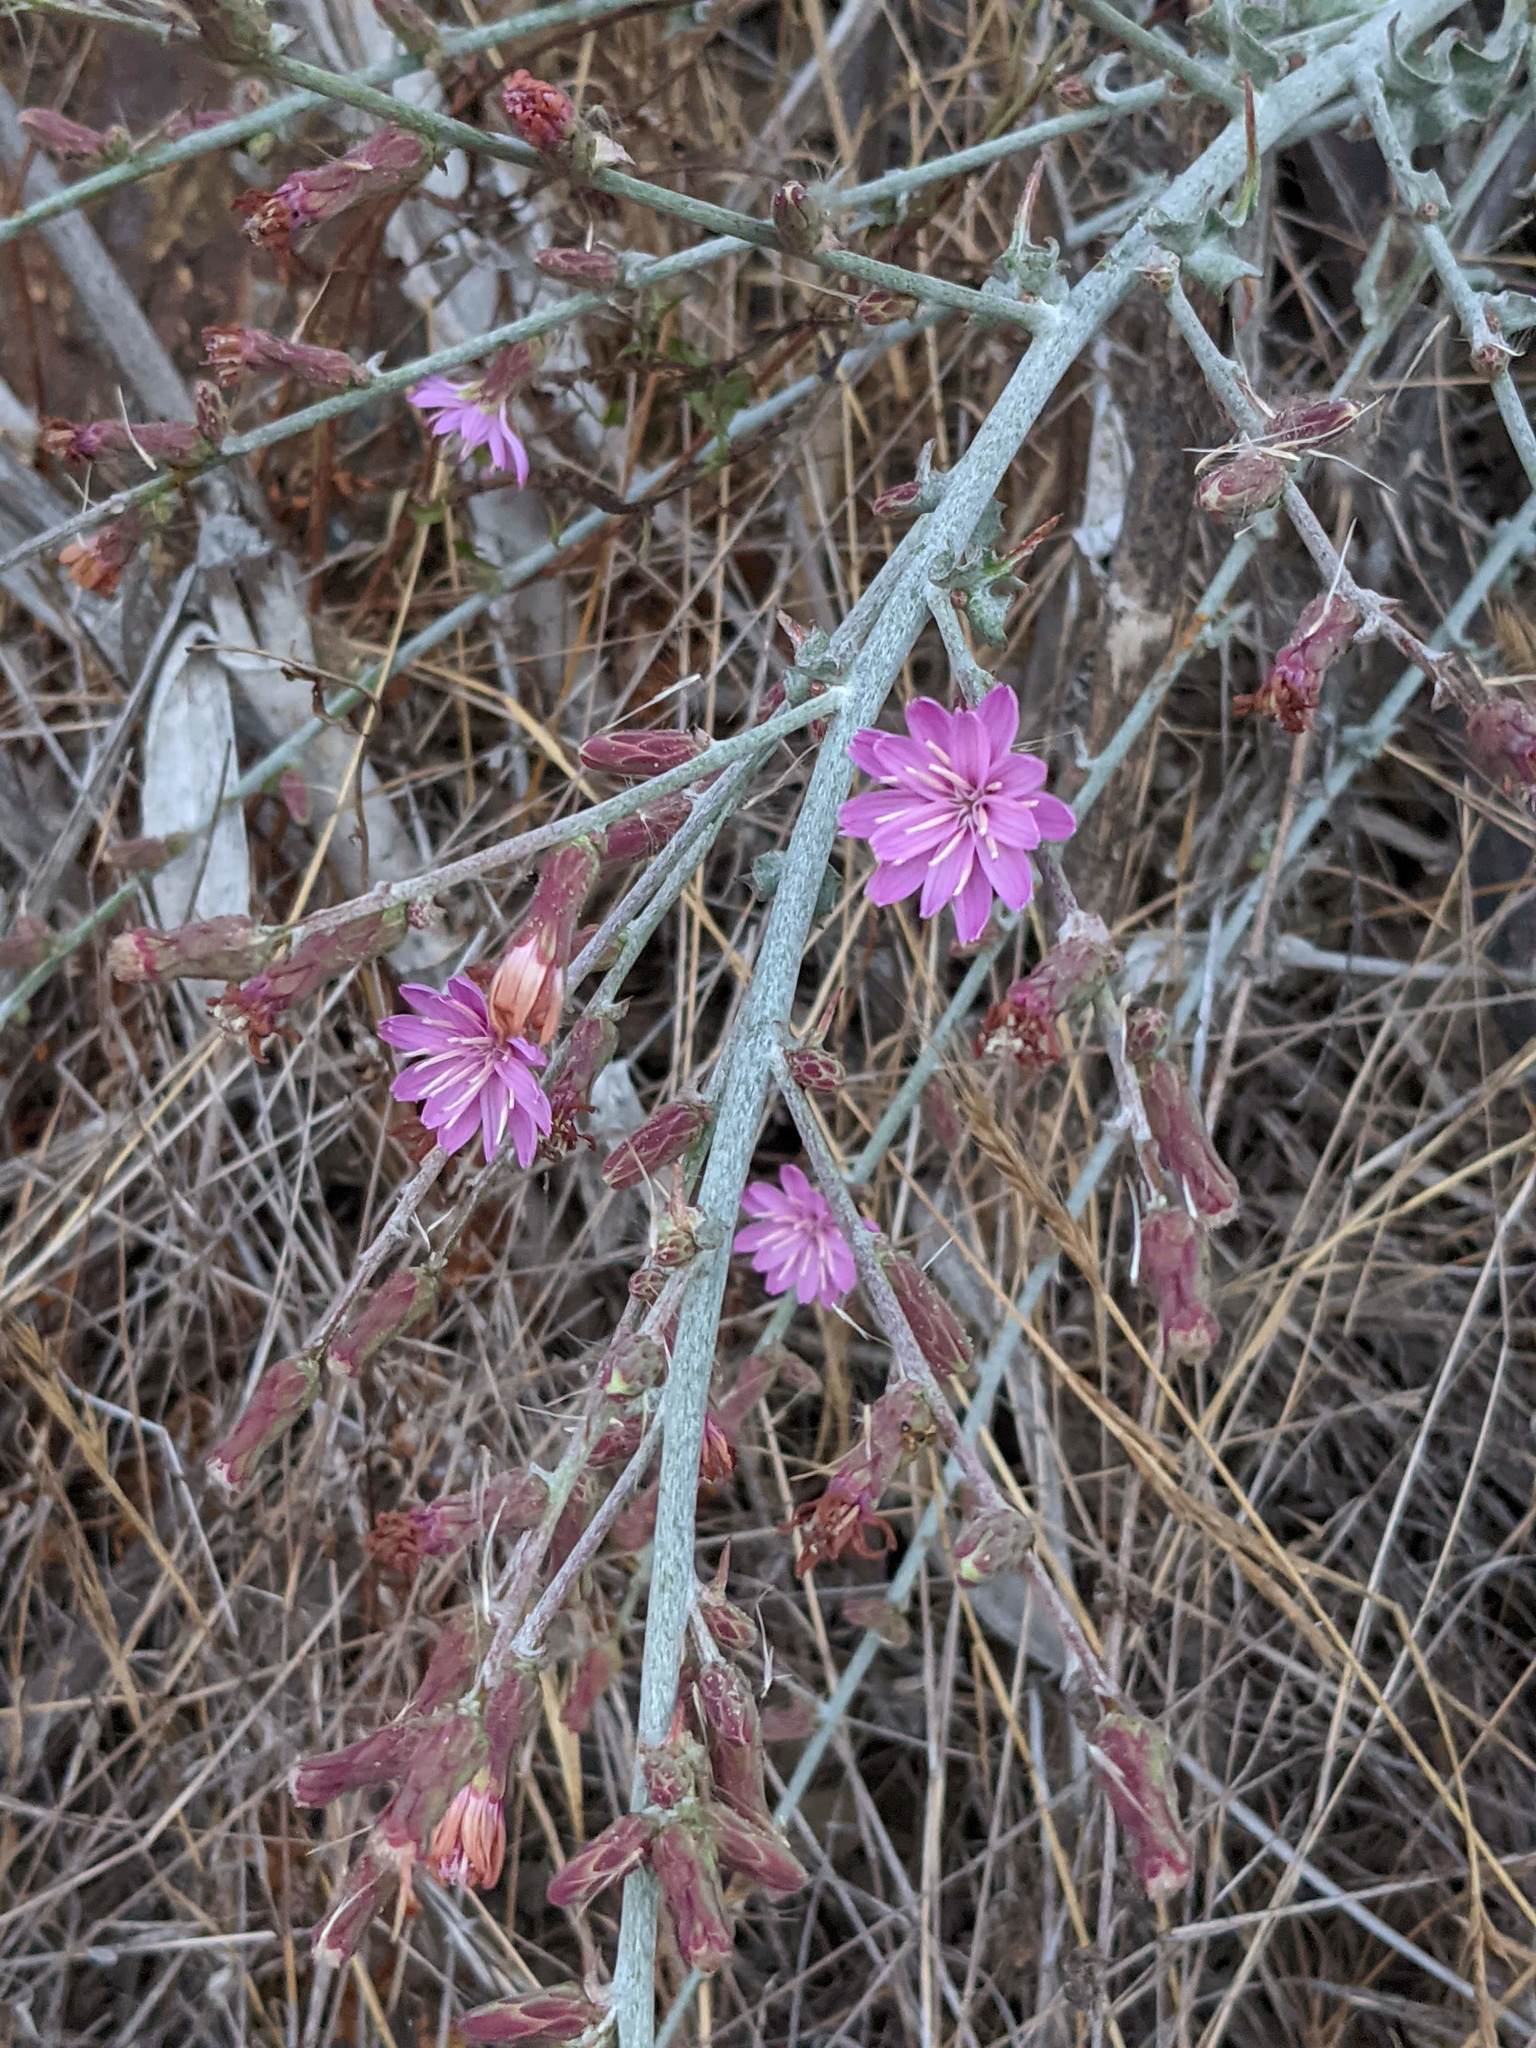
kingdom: Plantae
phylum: Tracheophyta
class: Magnoliopsida
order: Asterales
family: Asteraceae
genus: Stephanomeria
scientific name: Stephanomeria cichoriacea
